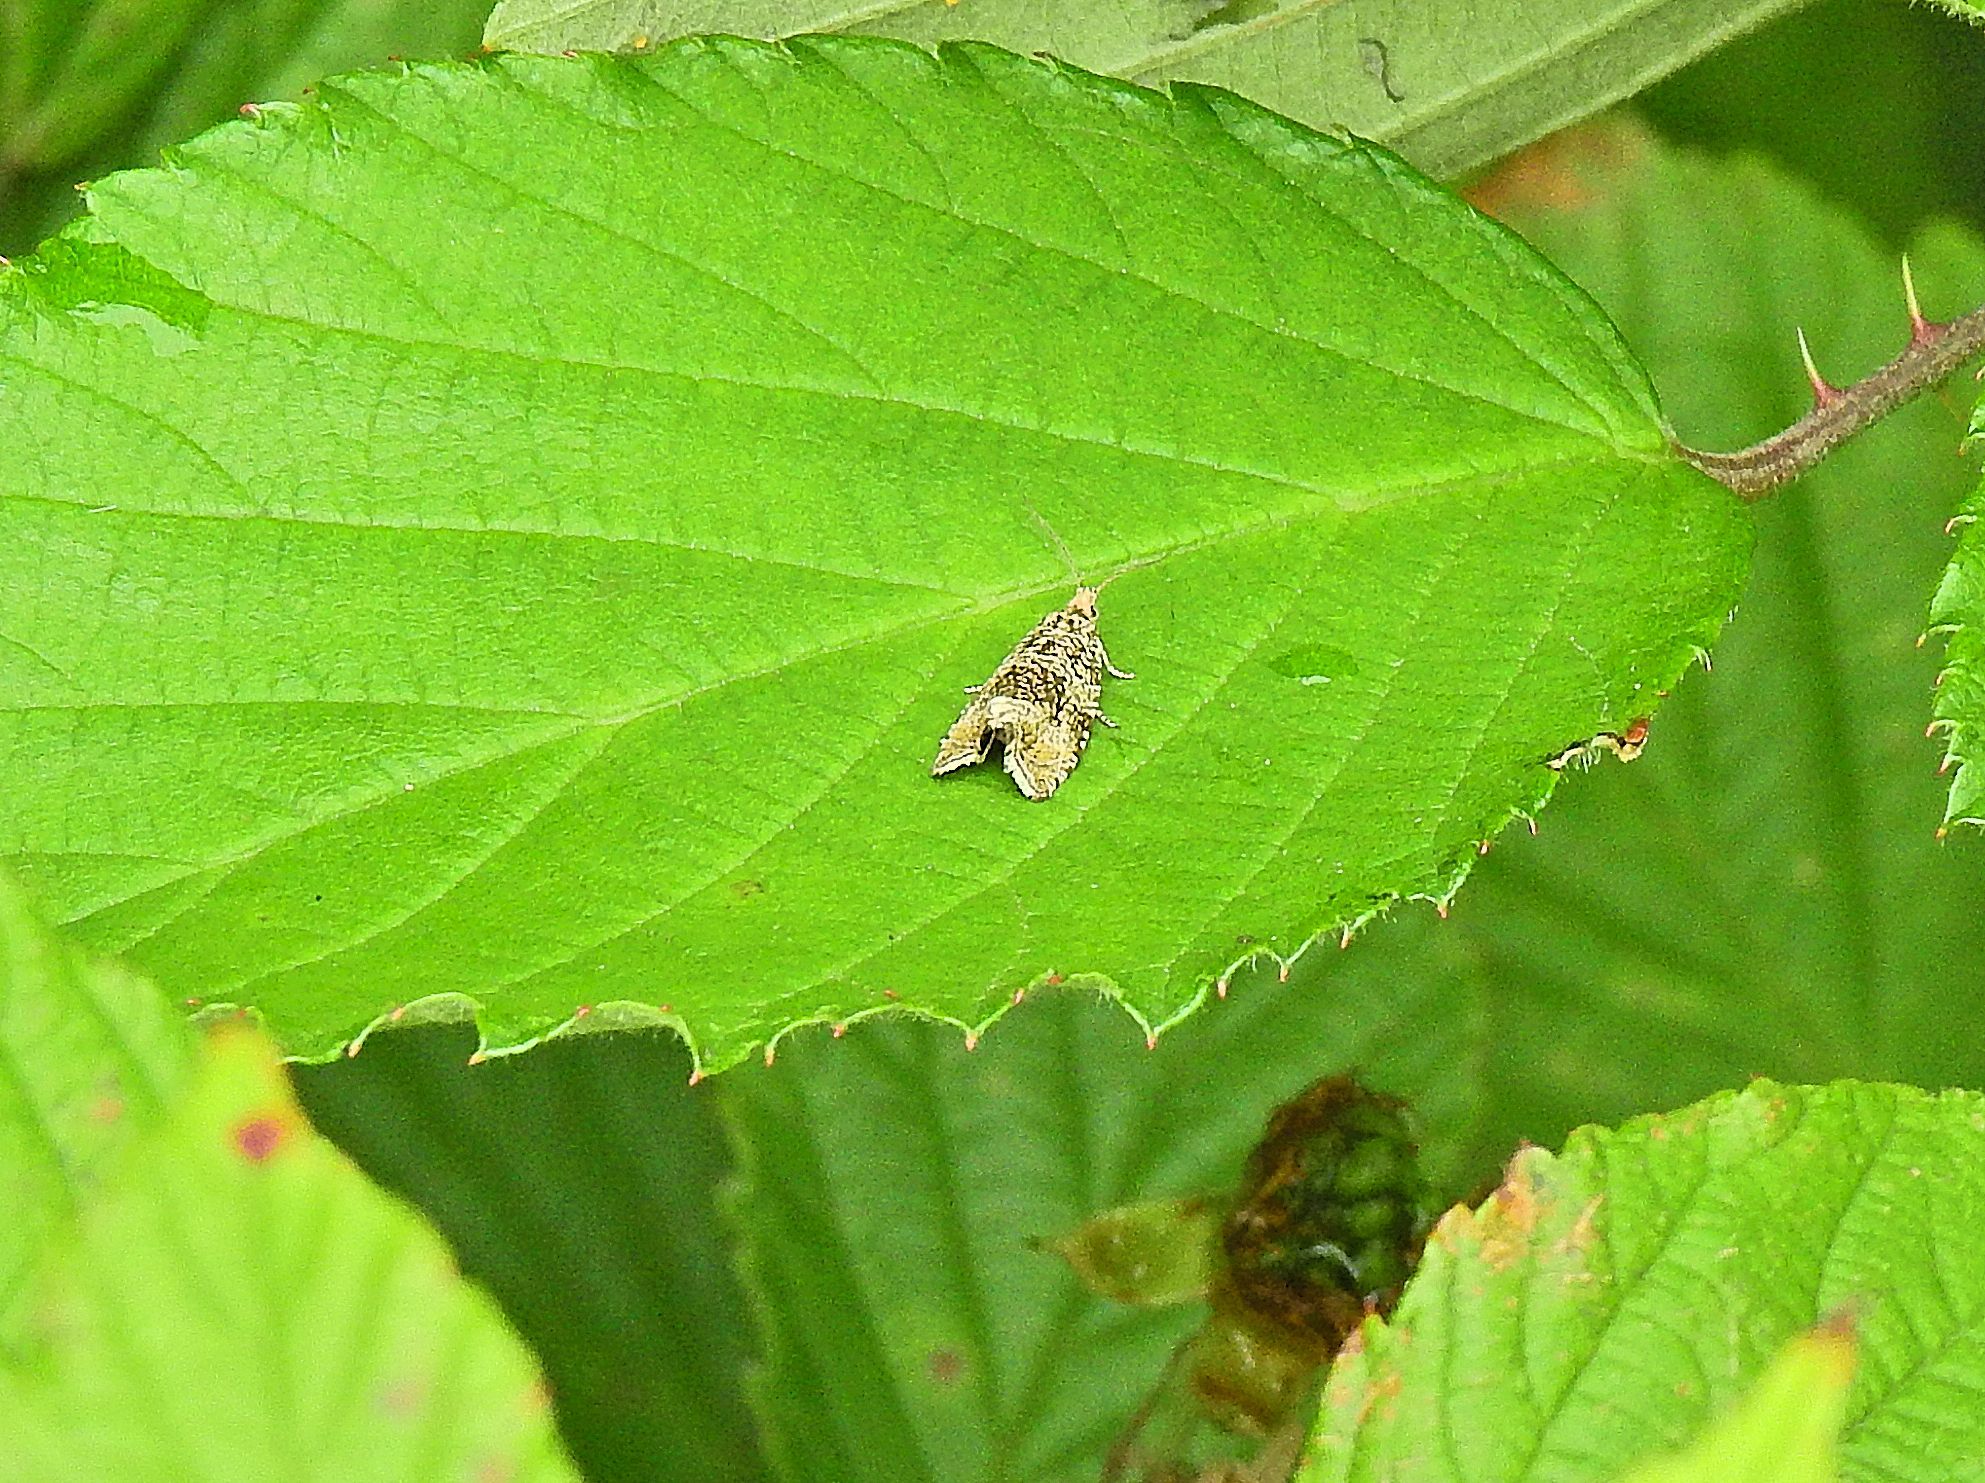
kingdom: Animalia
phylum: Arthropoda
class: Insecta
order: Lepidoptera
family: Tortricidae
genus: Syricoris
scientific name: Syricoris lacunana
